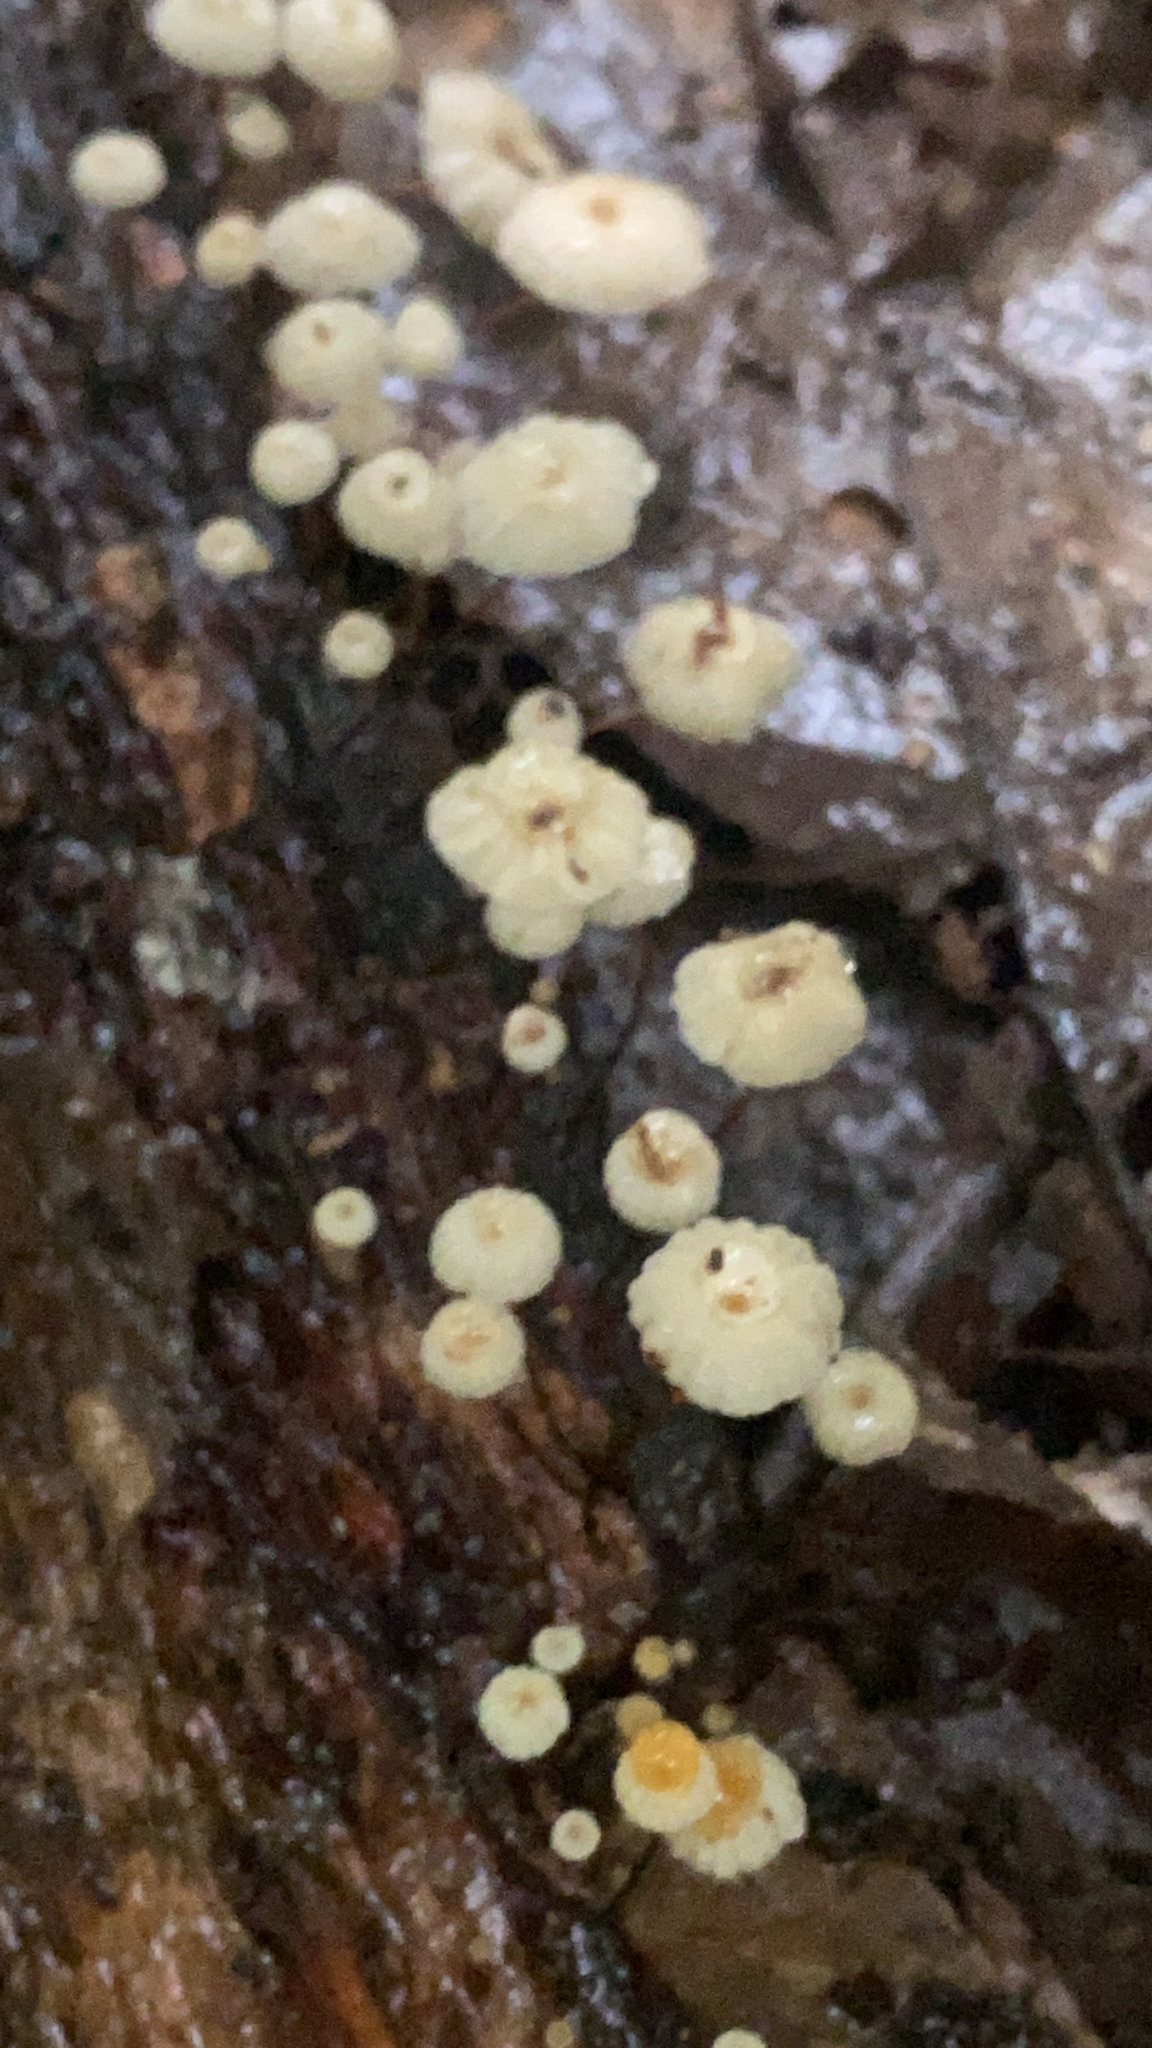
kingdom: Fungi
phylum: Basidiomycota
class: Agaricomycetes
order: Agaricales
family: Marasmiaceae
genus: Marasmius
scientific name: Marasmius rotula
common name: Collared parachute
